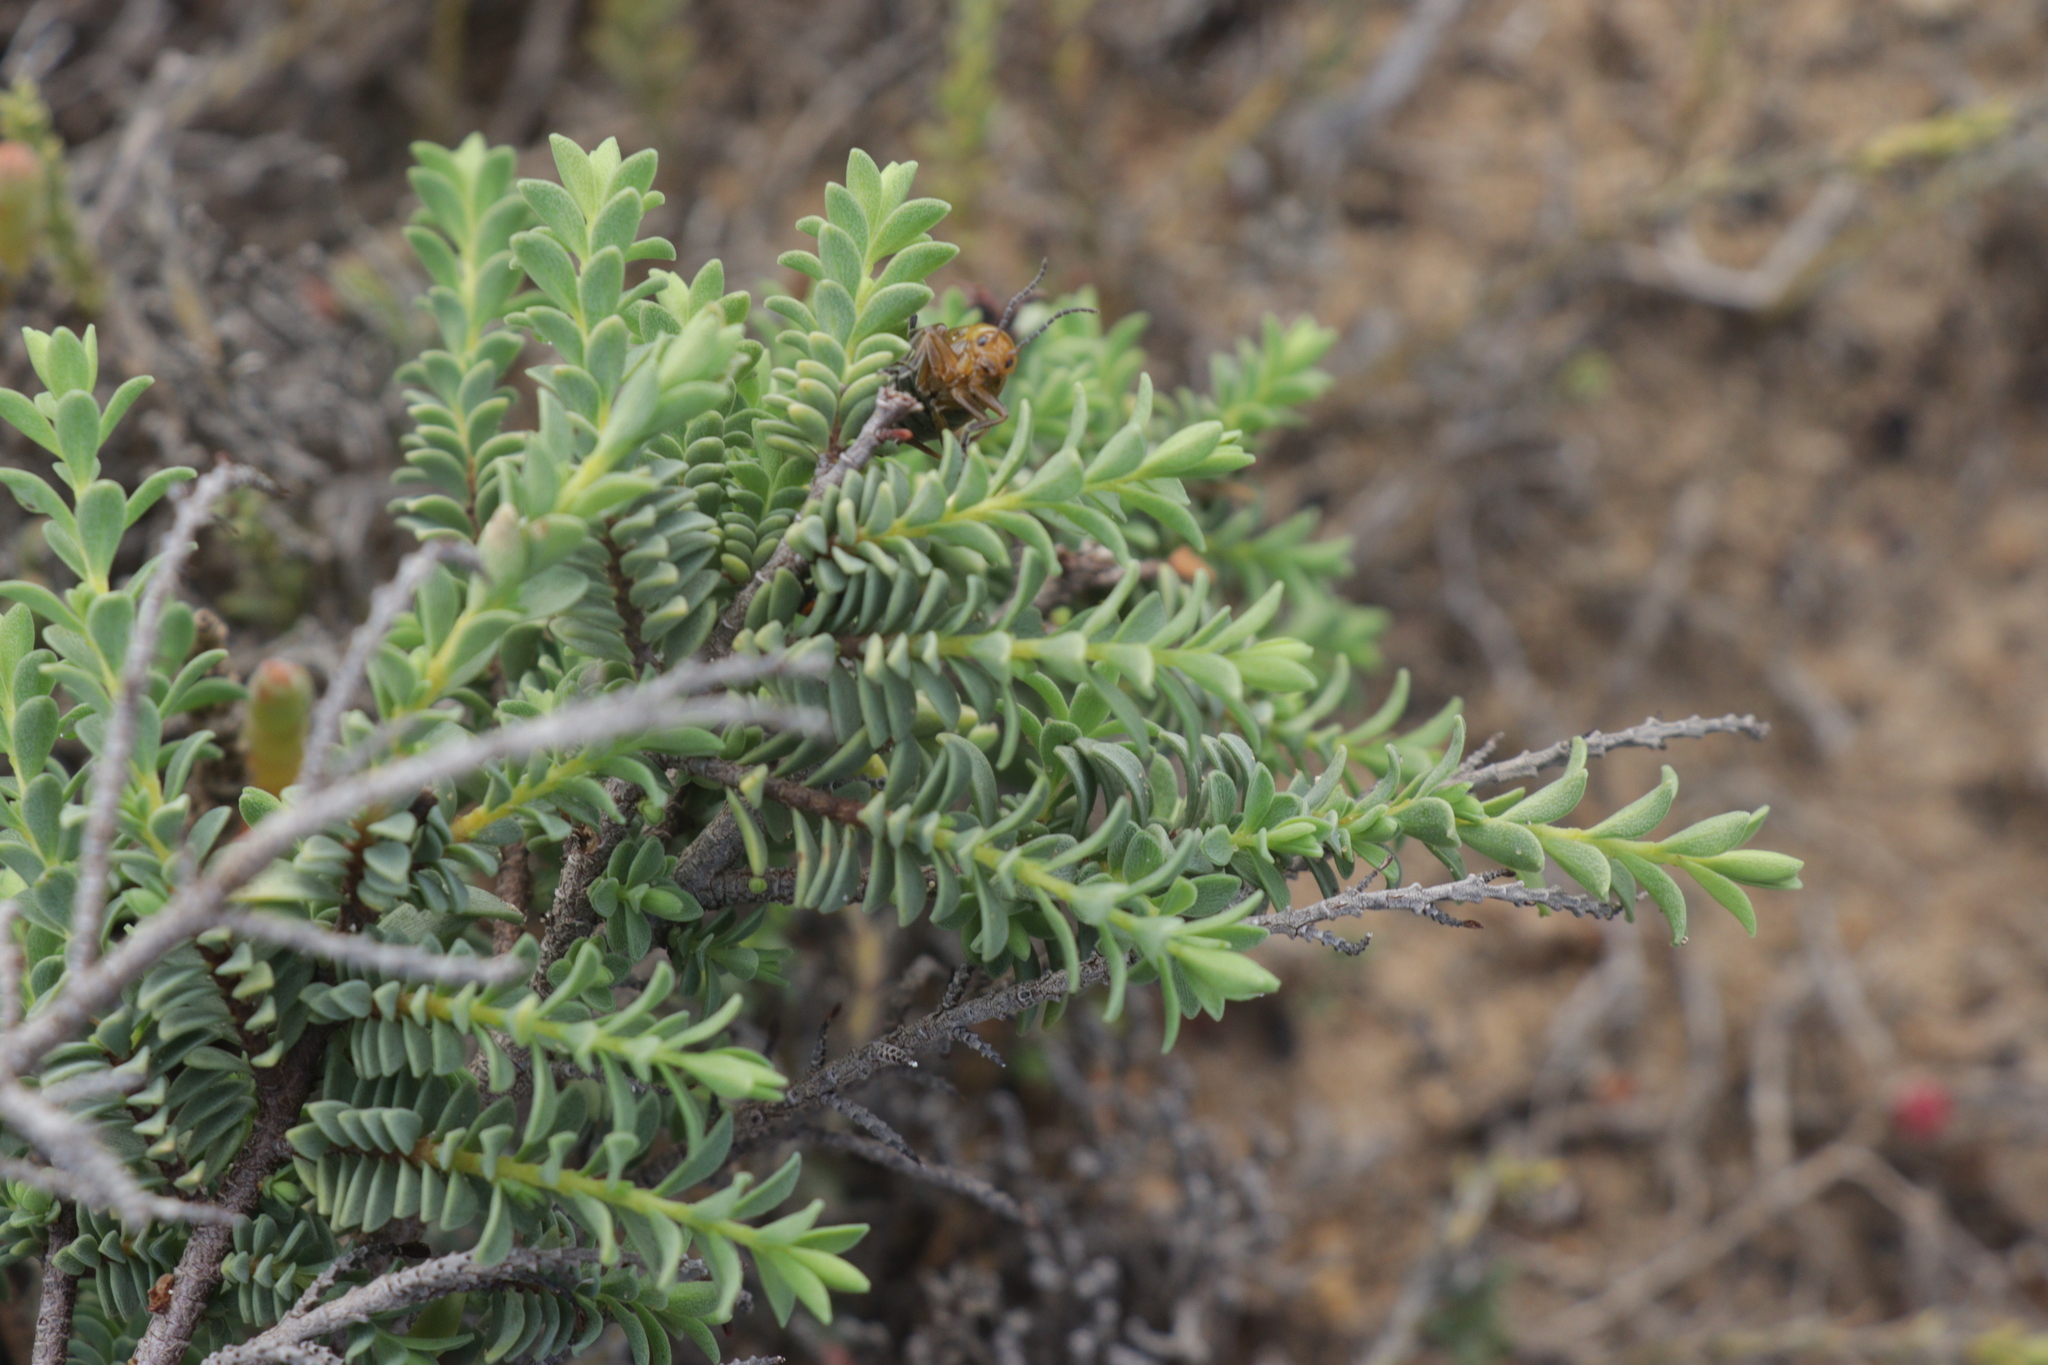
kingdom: Plantae
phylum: Tracheophyta
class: Magnoliopsida
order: Malvales
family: Thymelaeaceae
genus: Pimelea
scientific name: Pimelea serpyllifolia
